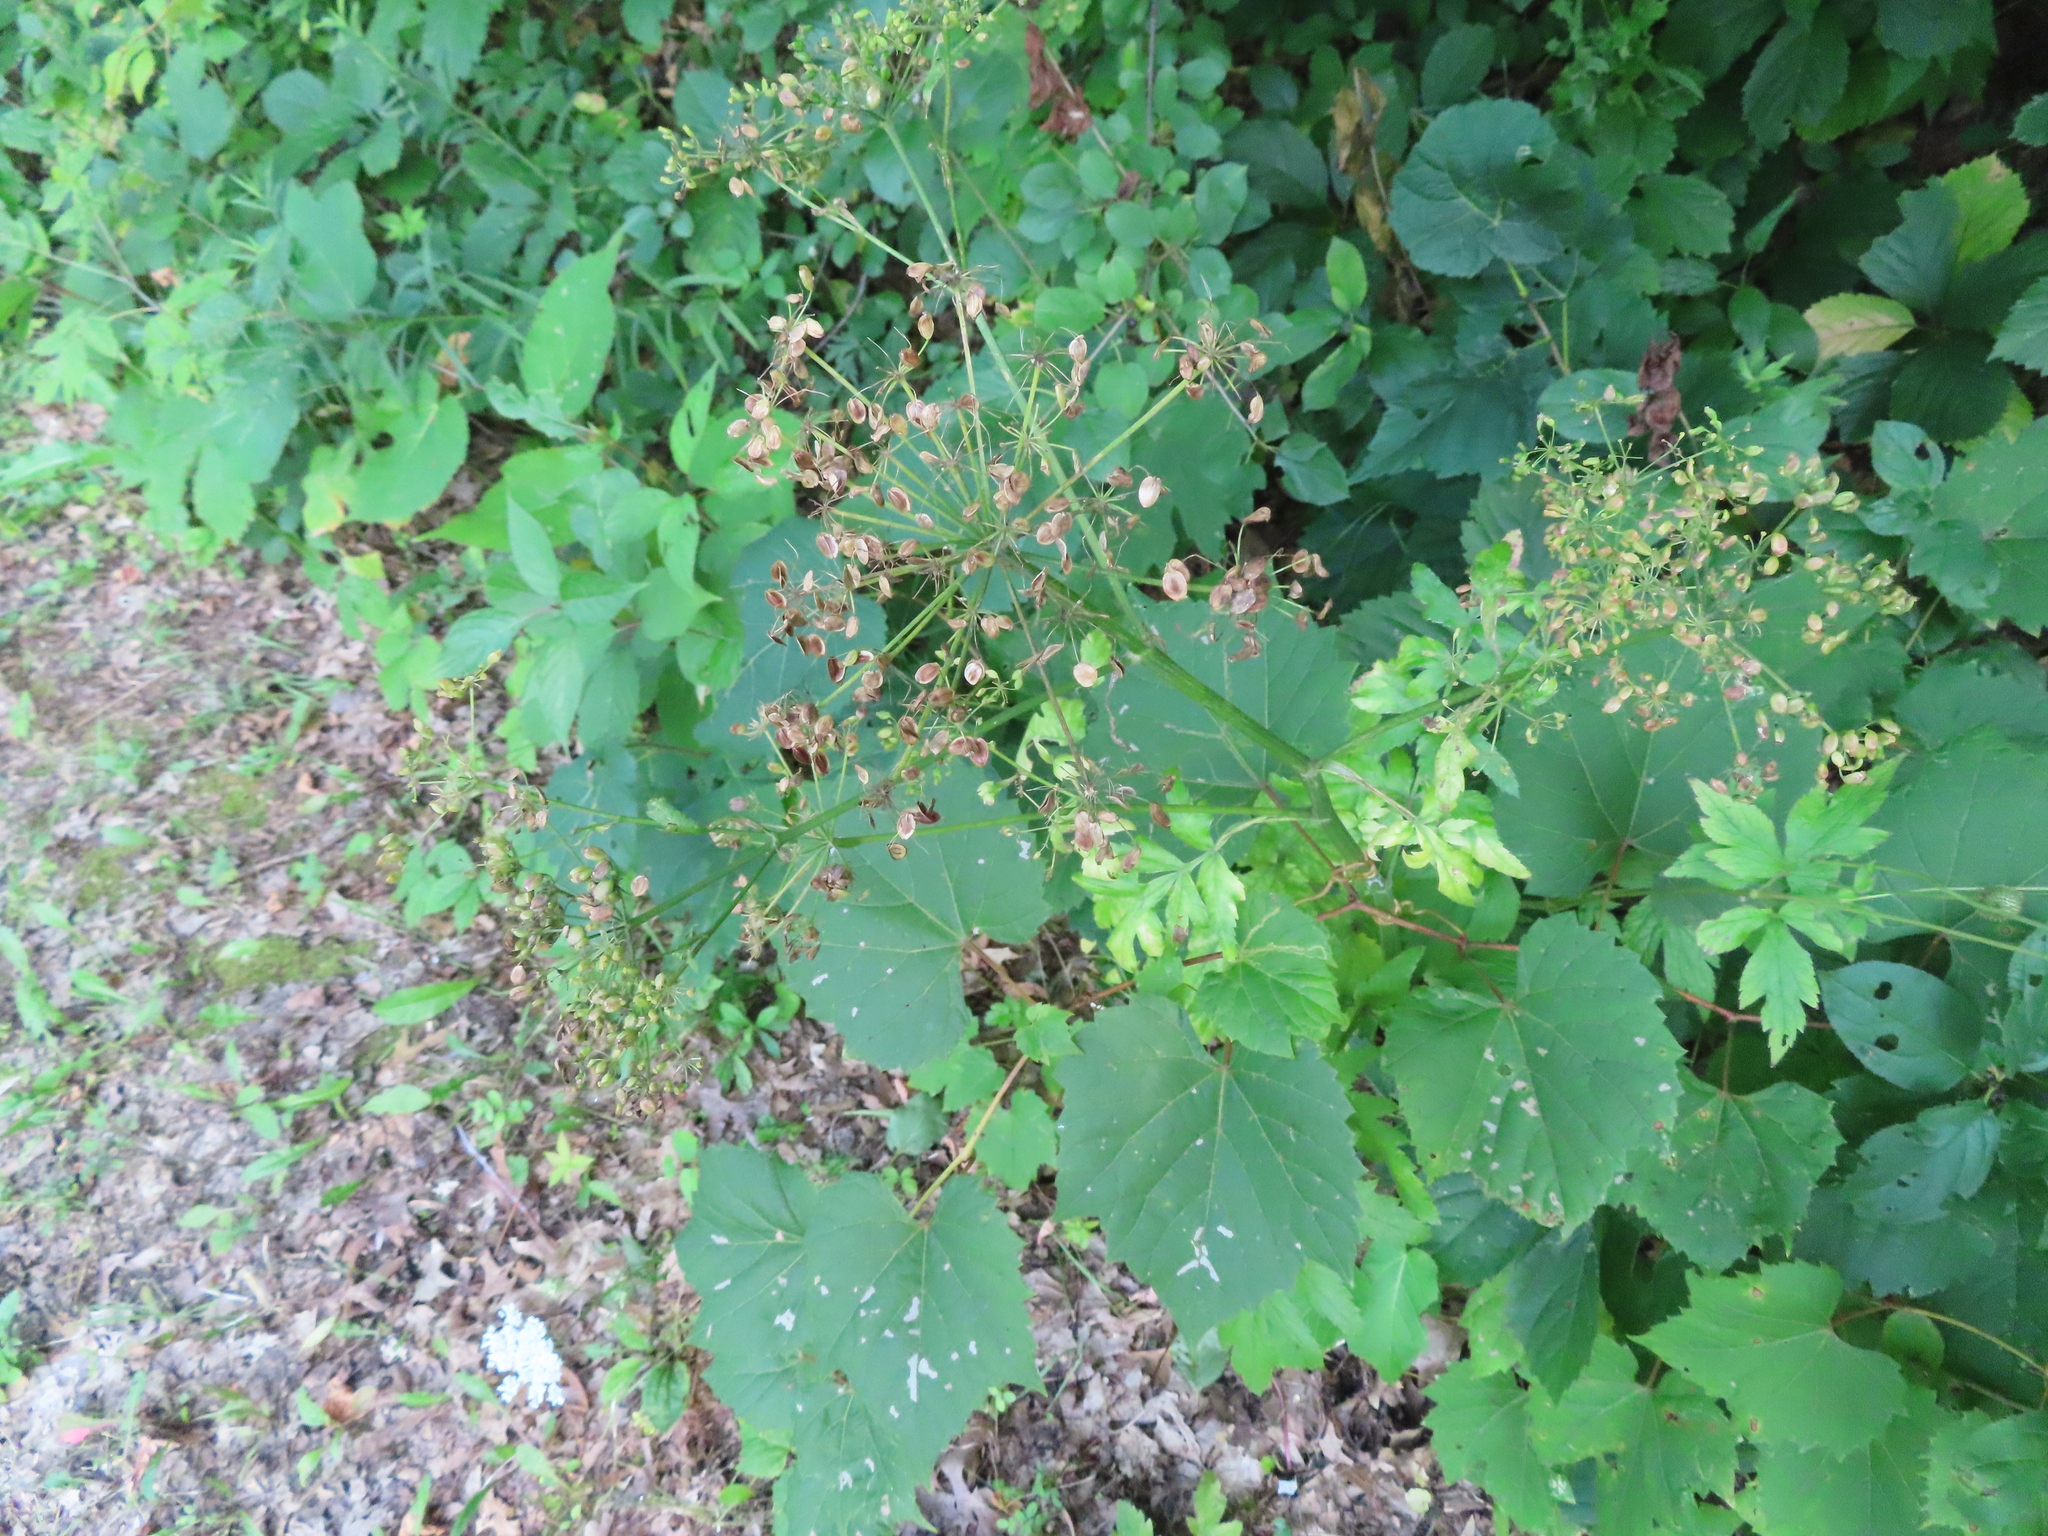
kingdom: Plantae
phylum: Tracheophyta
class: Magnoliopsida
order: Apiales
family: Apiaceae
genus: Pastinaca
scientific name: Pastinaca sativa
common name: Wild parsnip
